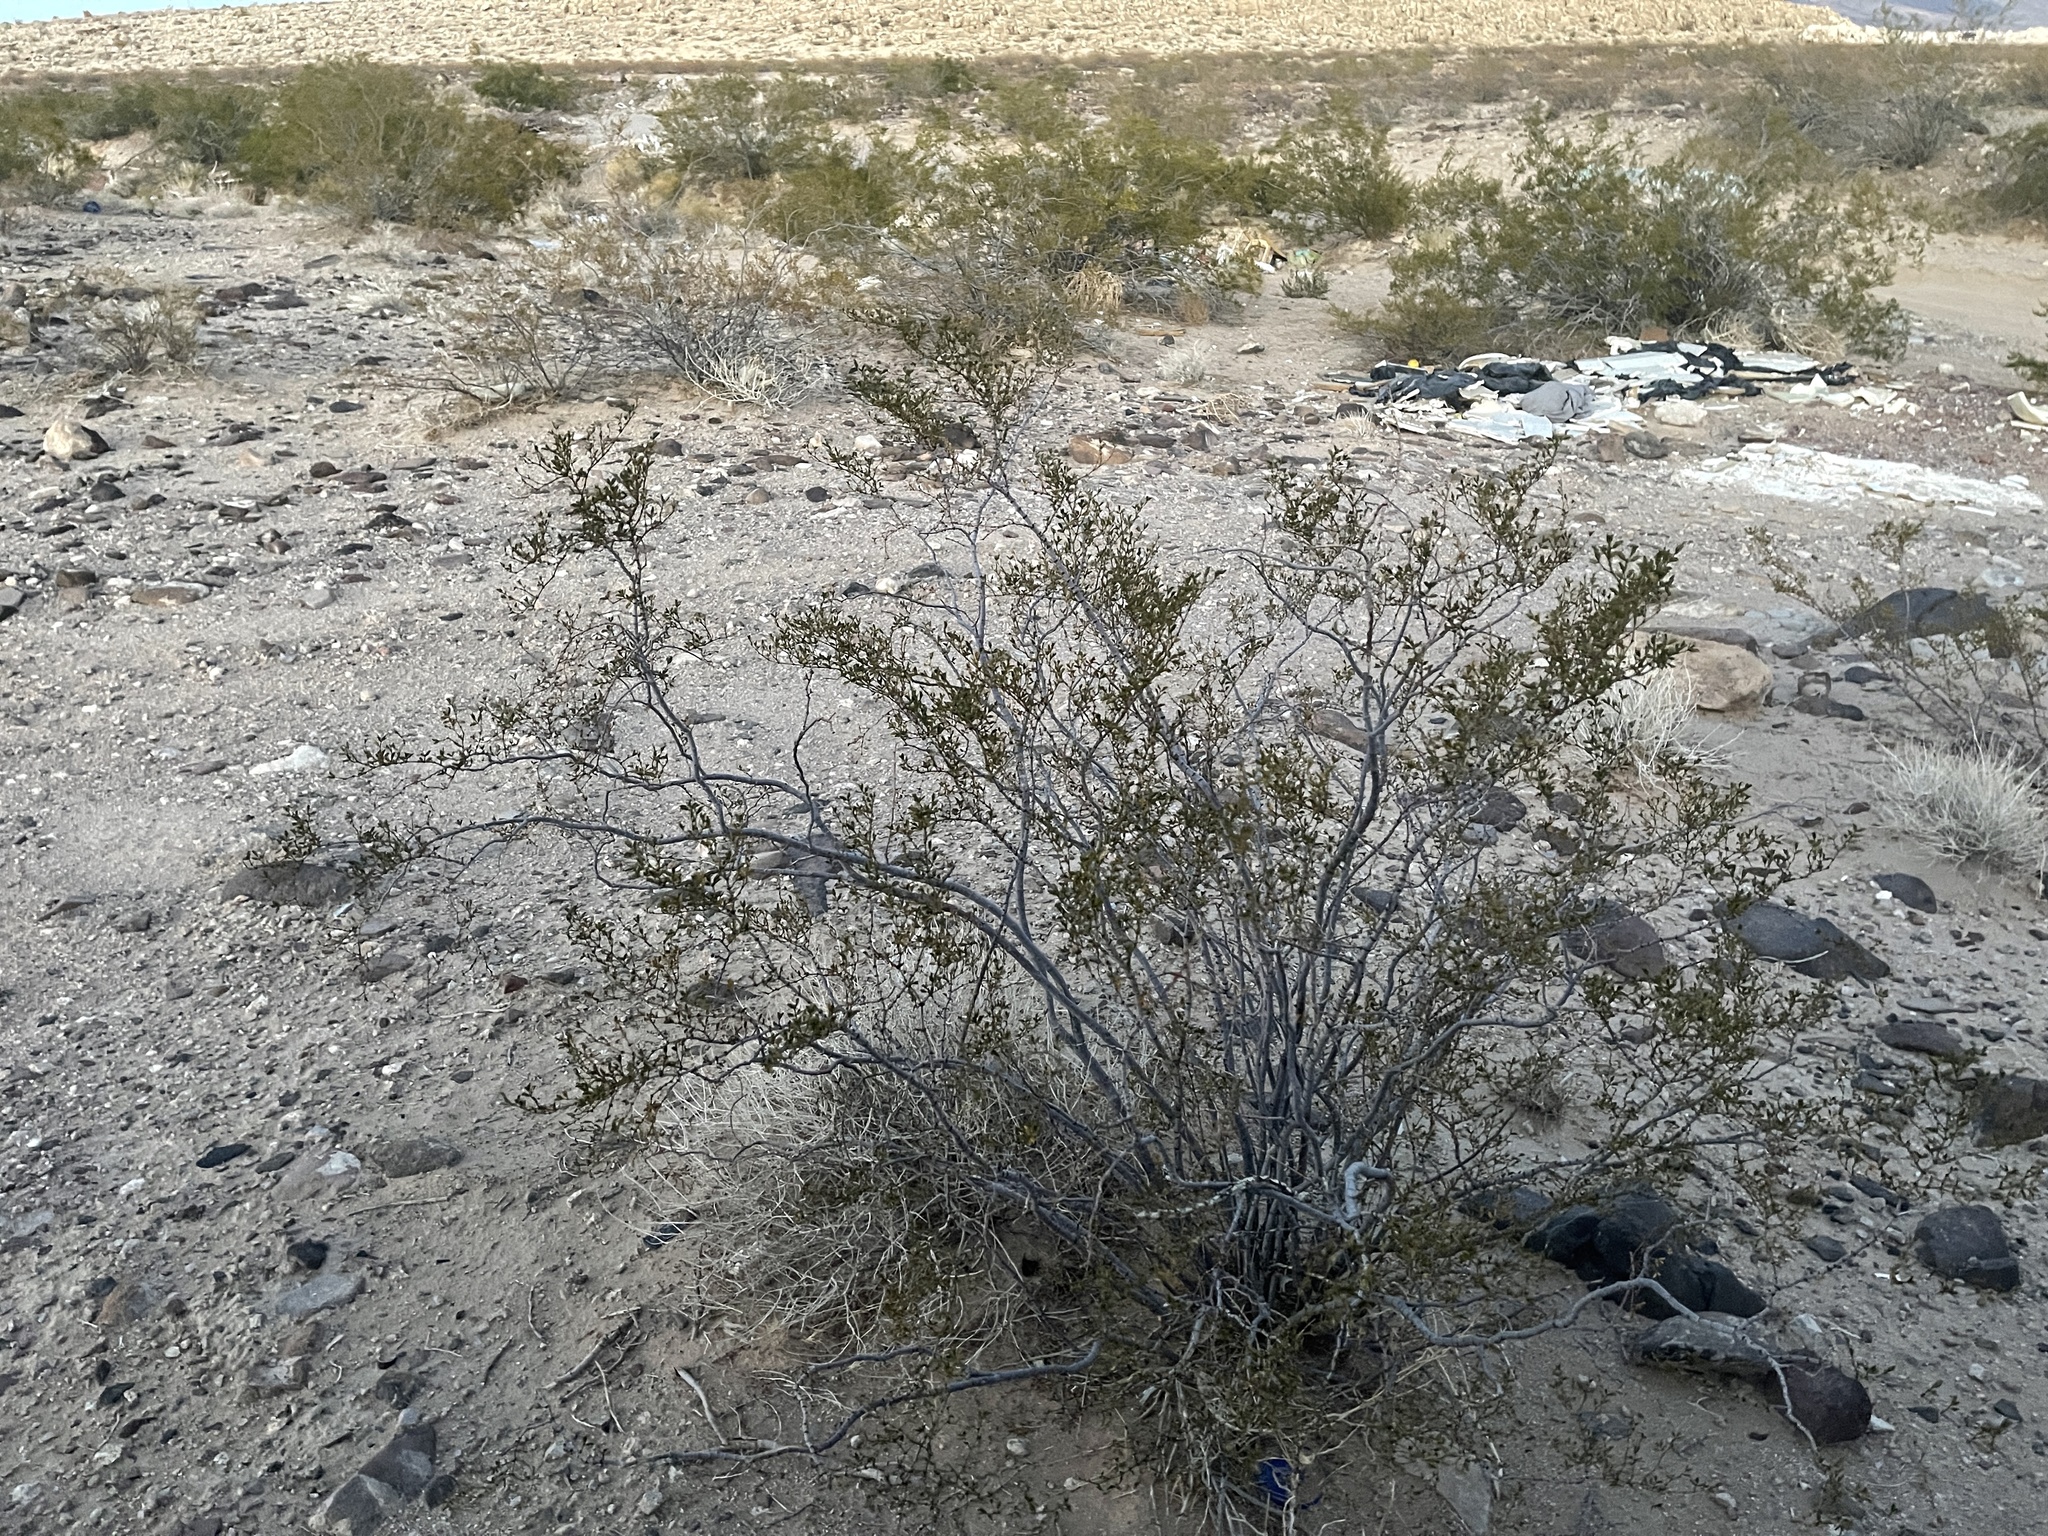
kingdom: Plantae
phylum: Tracheophyta
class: Magnoliopsida
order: Zygophyllales
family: Zygophyllaceae
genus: Larrea
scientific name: Larrea tridentata
